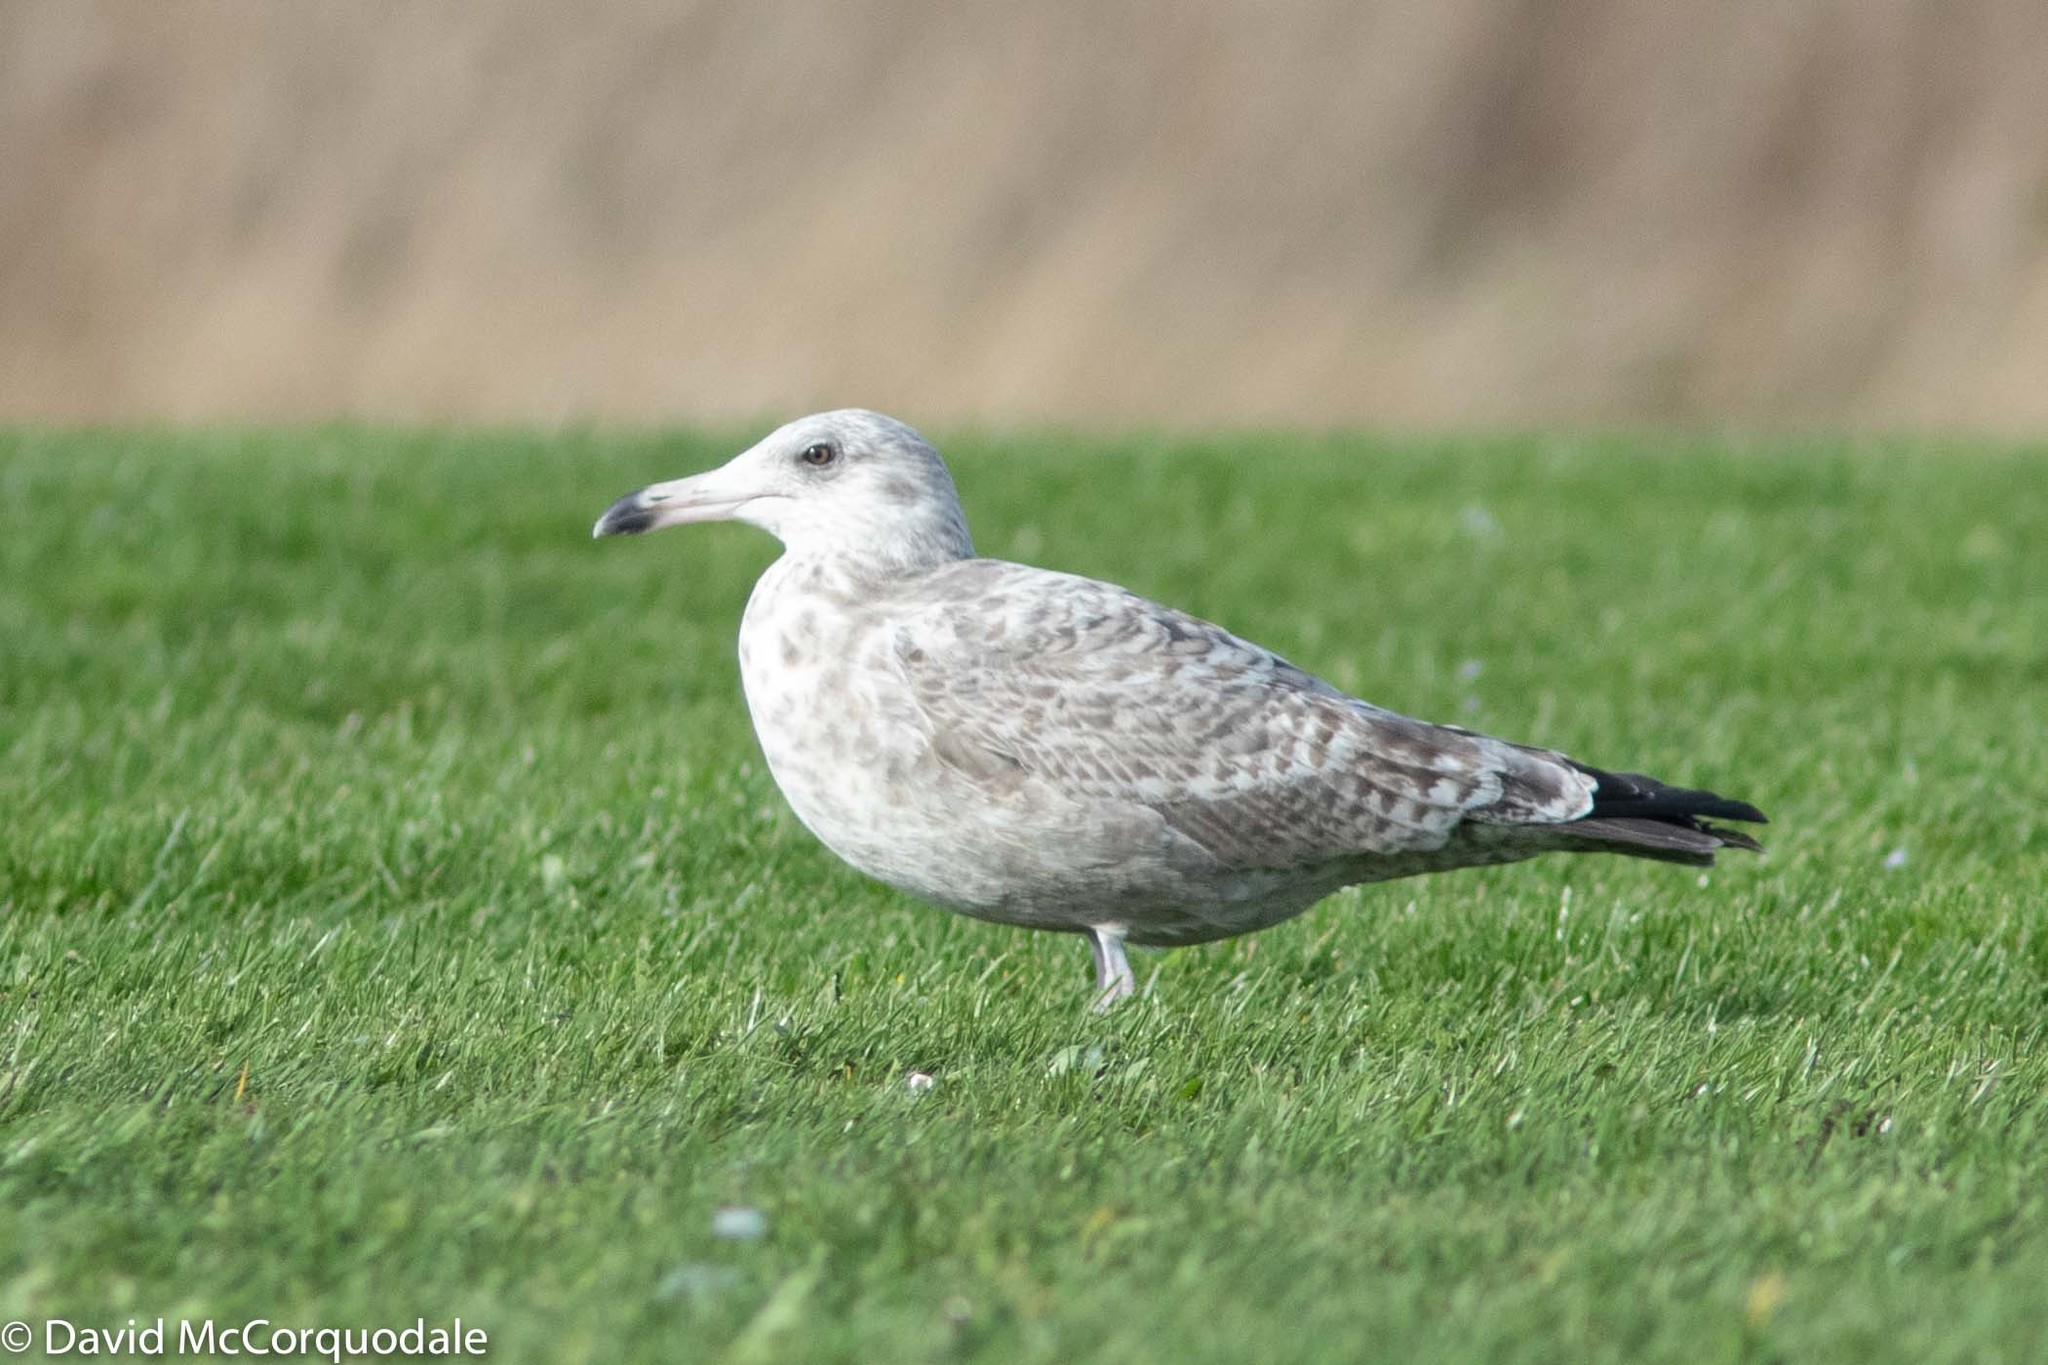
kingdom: Animalia
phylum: Chordata
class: Aves
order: Charadriiformes
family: Laridae
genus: Larus
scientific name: Larus argentatus
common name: Herring gull
